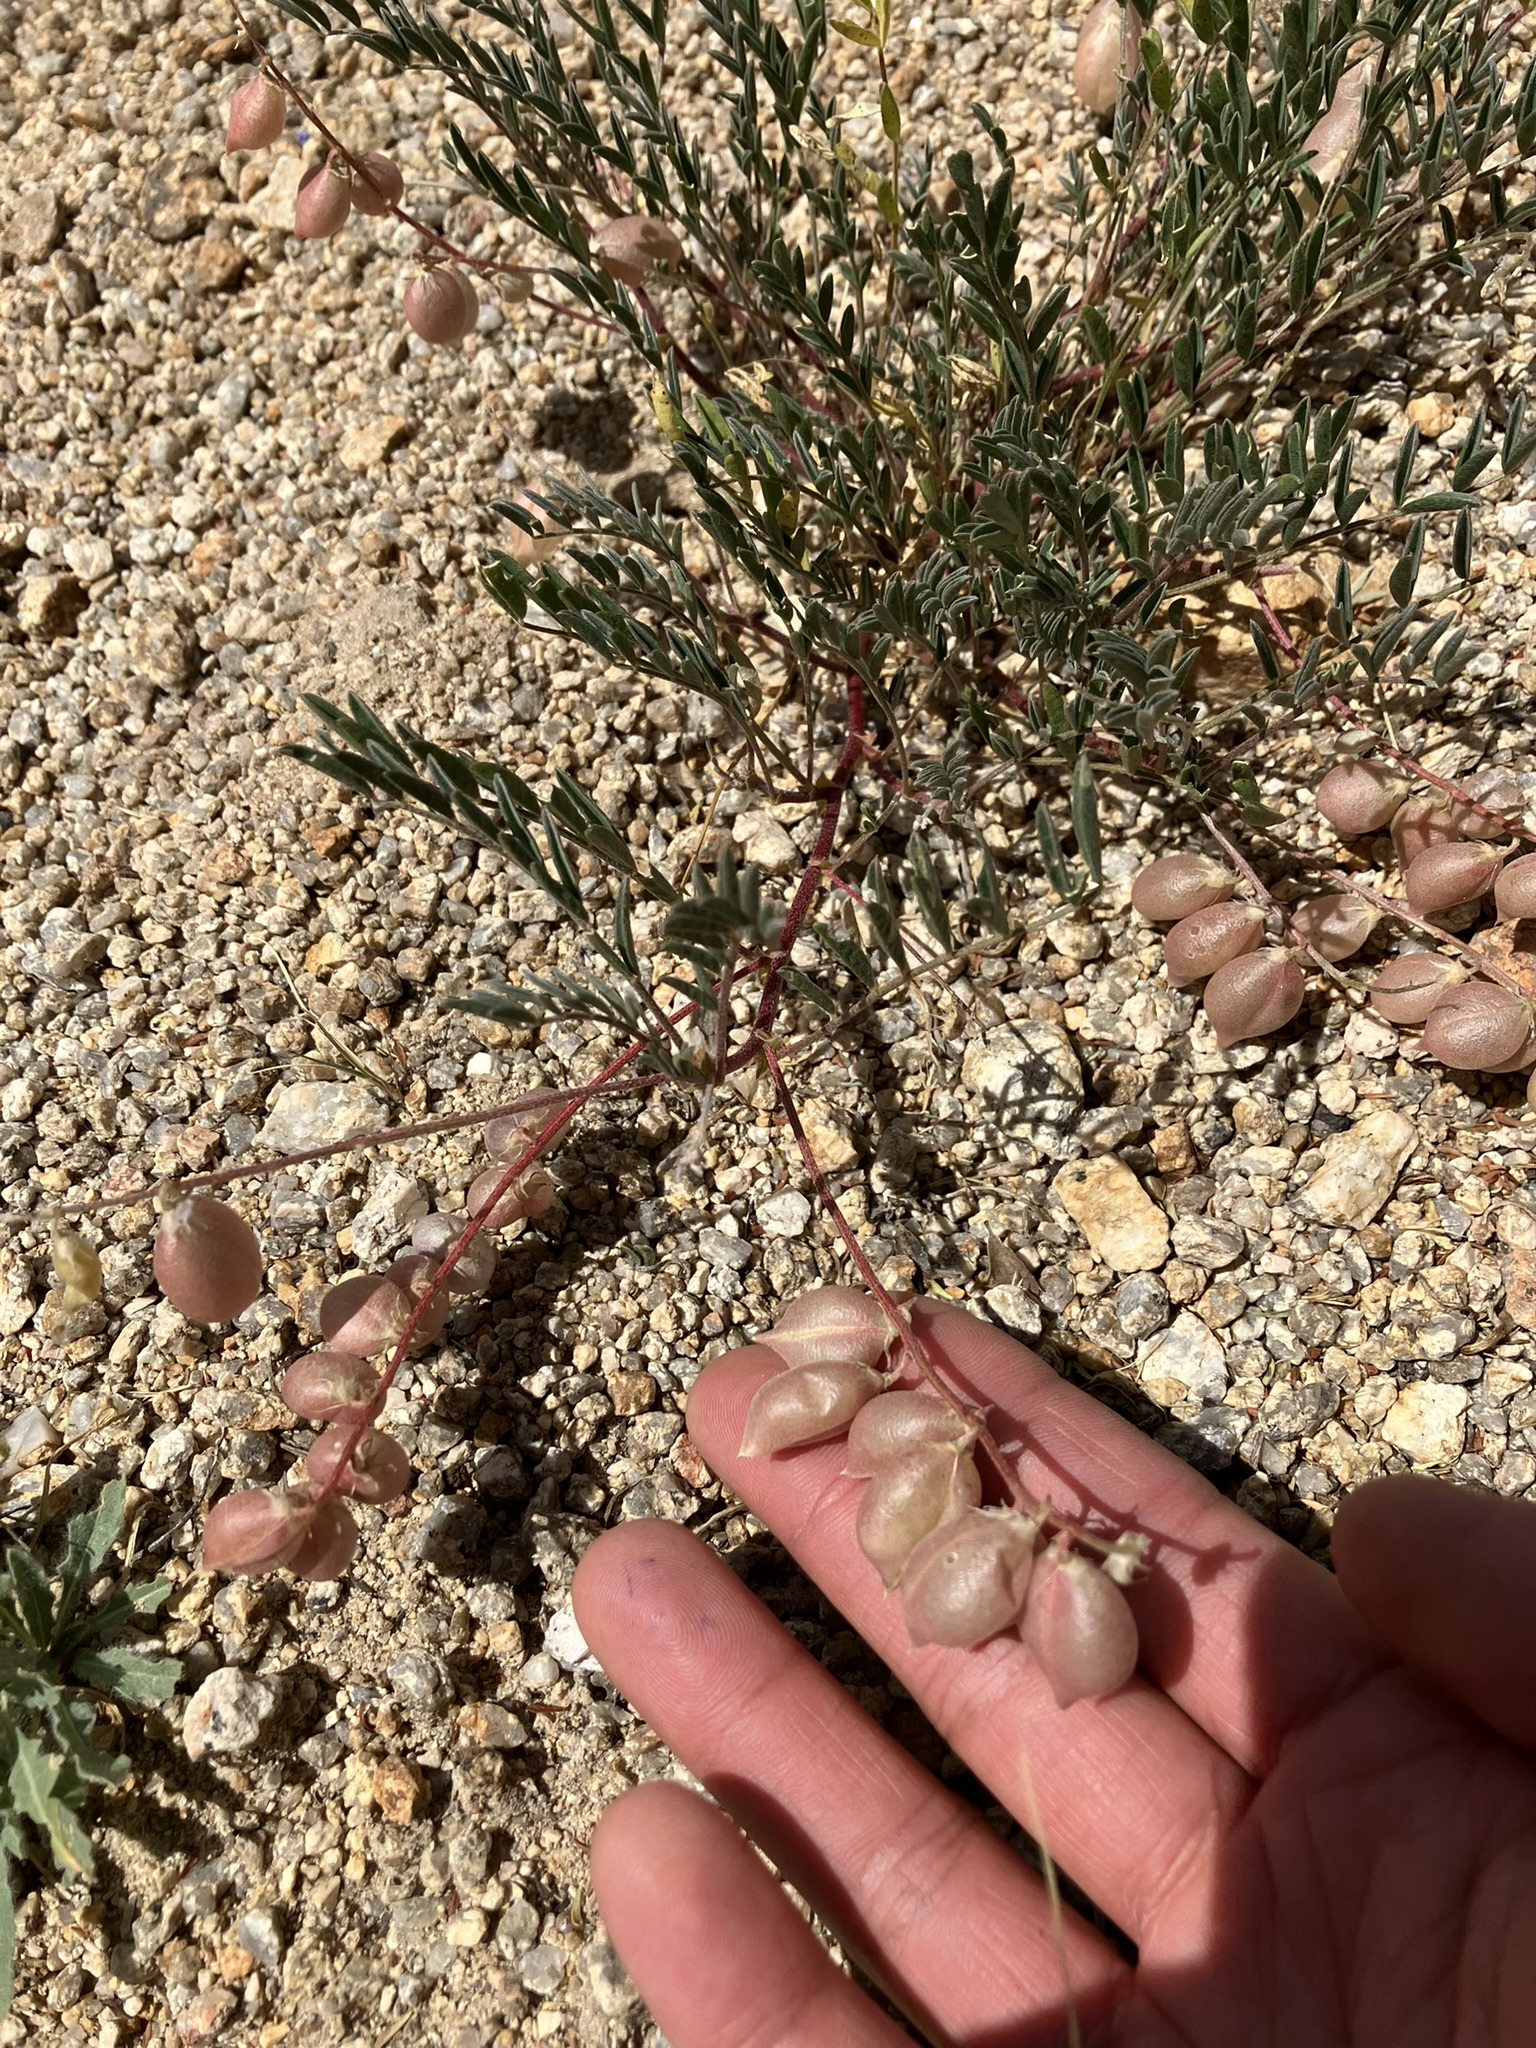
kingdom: Plantae
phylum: Tracheophyta
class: Magnoliopsida
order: Fabales
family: Fabaceae
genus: Astragalus
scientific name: Astragalus nutans
